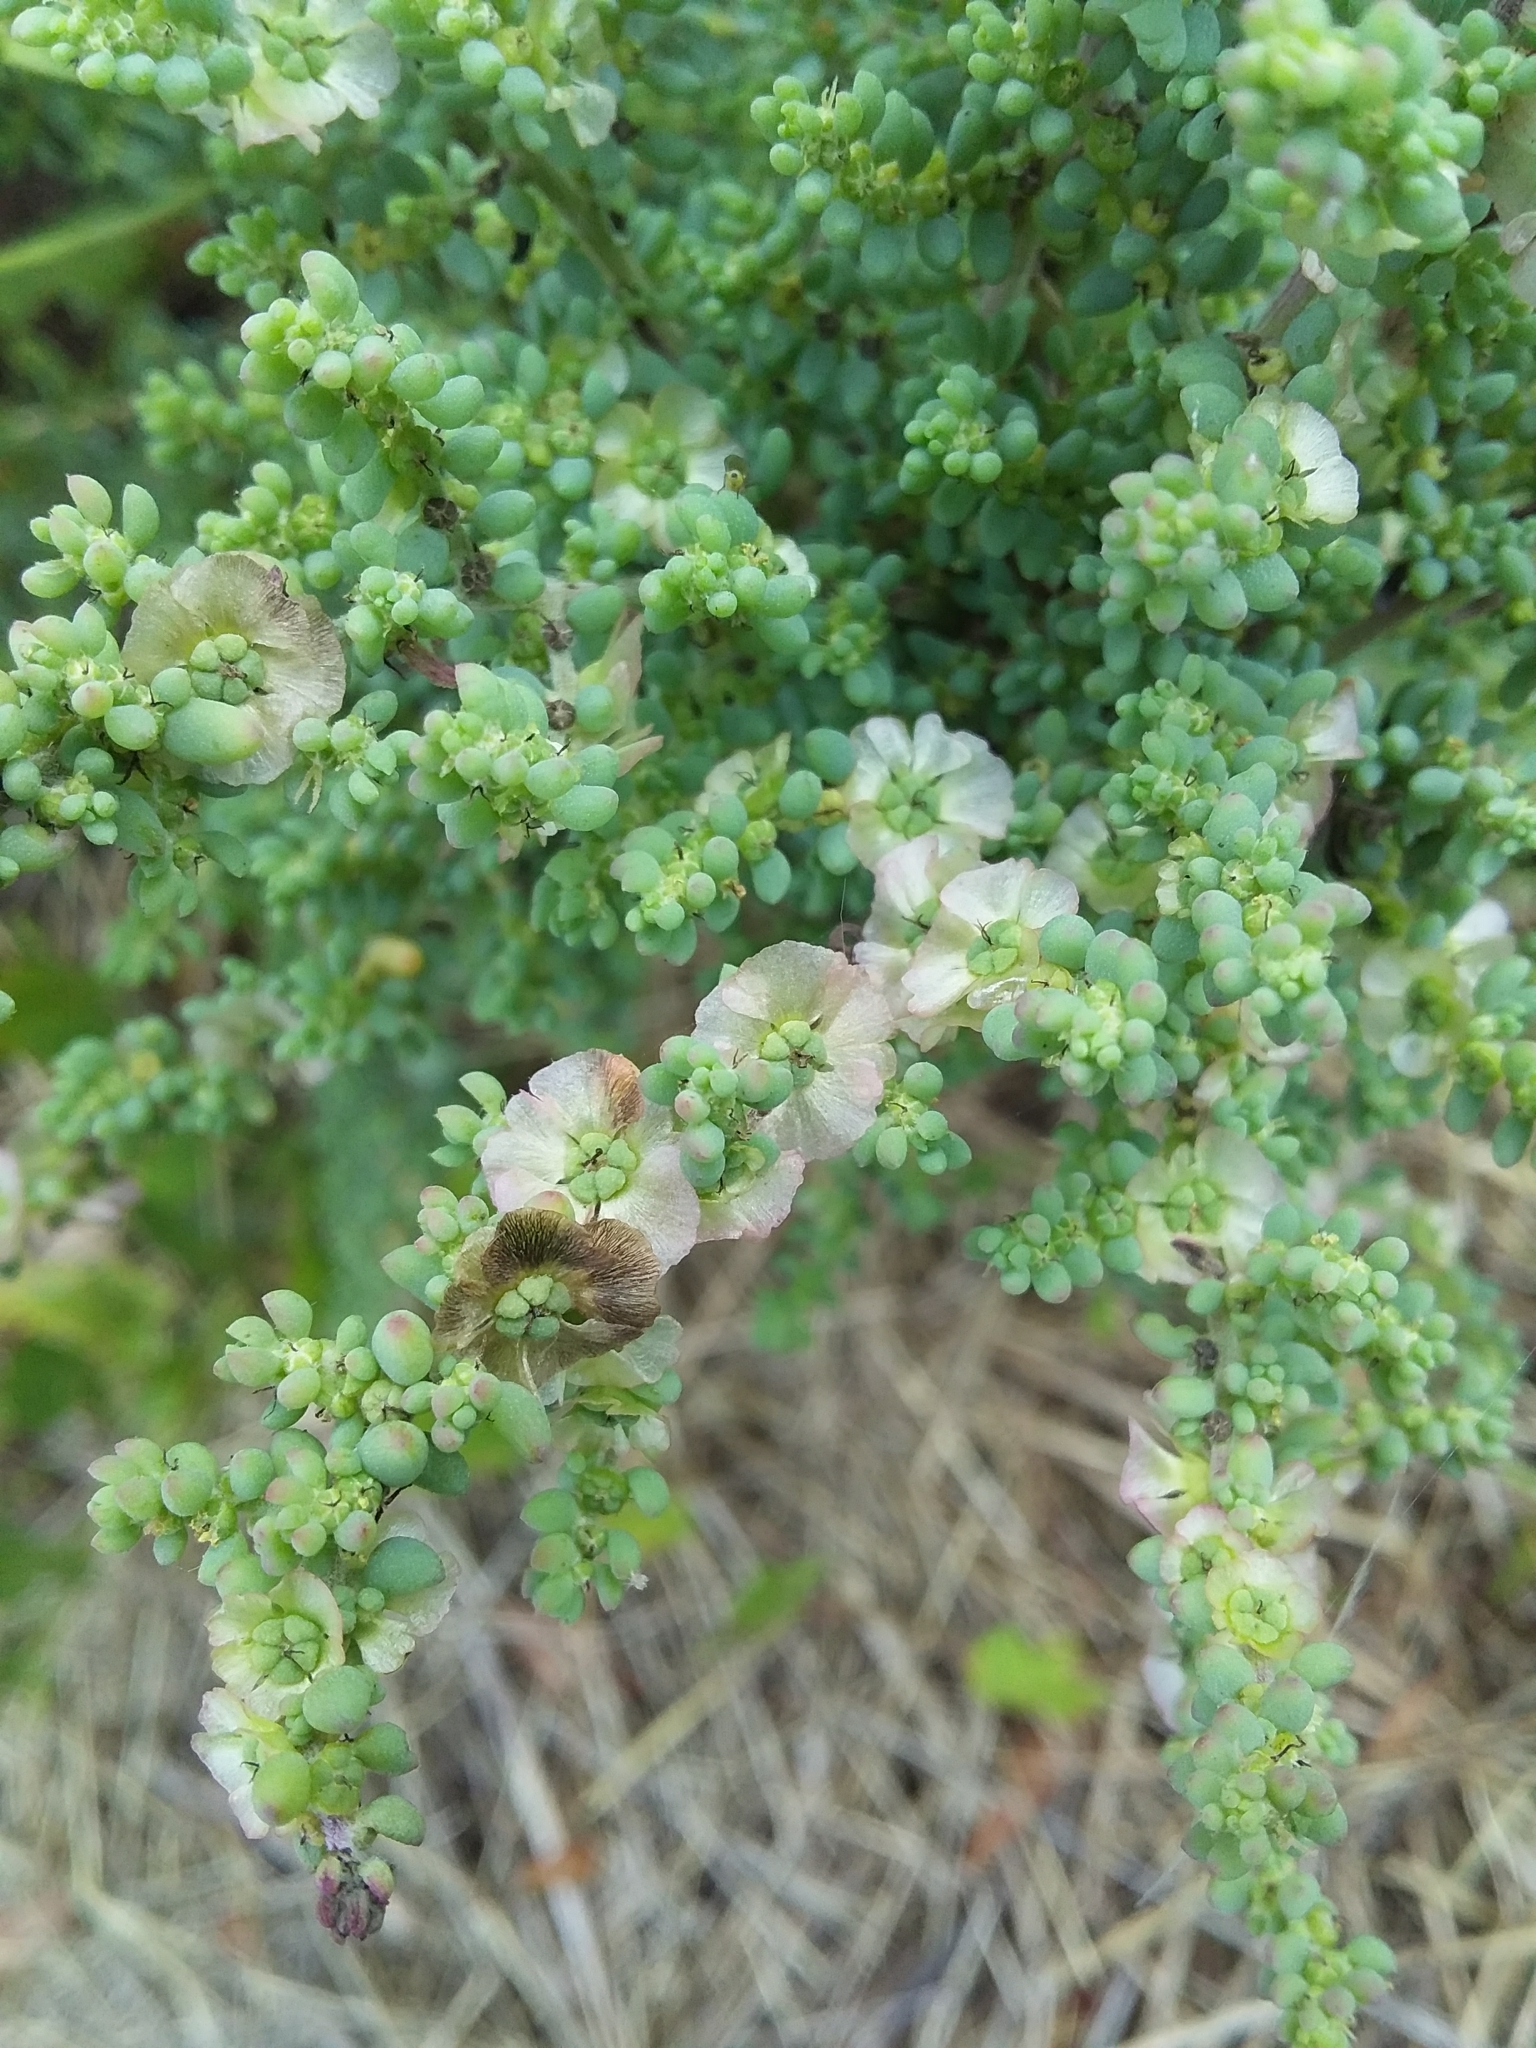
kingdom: Plantae
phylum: Tracheophyta
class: Magnoliopsida
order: Caryophyllales
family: Amaranthaceae
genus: Maireana
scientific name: Maireana brevifolia
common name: Eastern cottonbush
